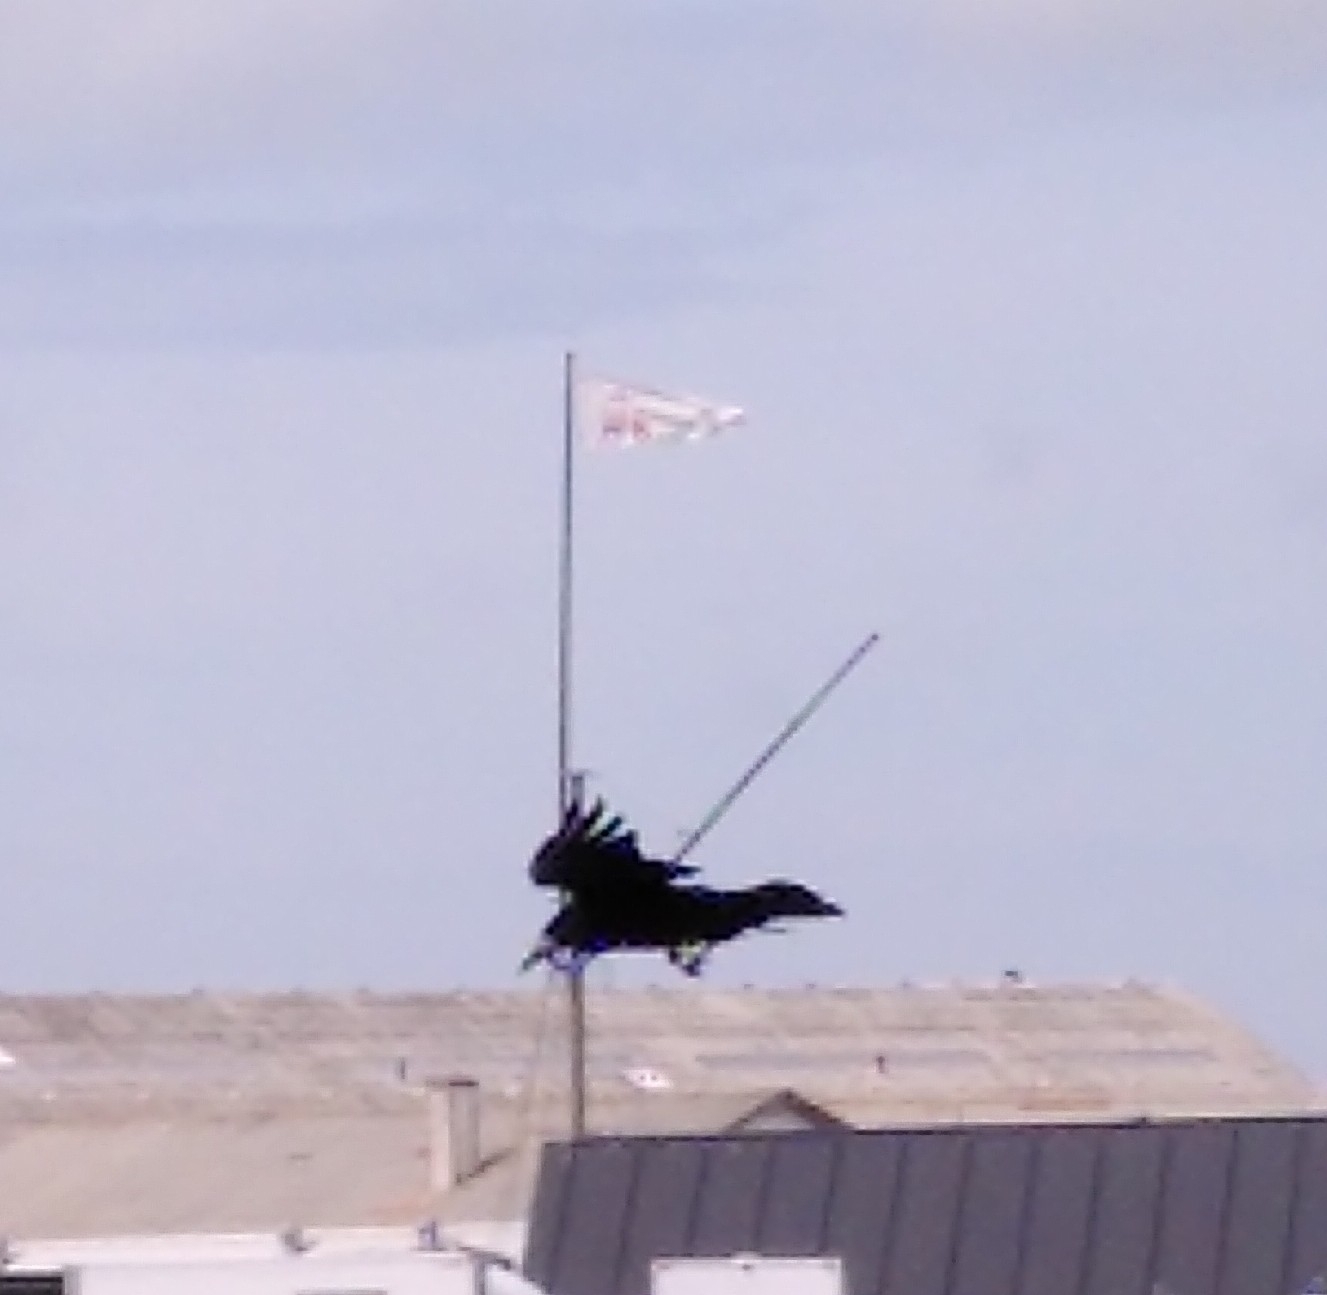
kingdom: Animalia
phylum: Chordata
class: Aves
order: Passeriformes
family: Corvidae
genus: Corvus
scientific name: Corvus frugilegus
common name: Rook
